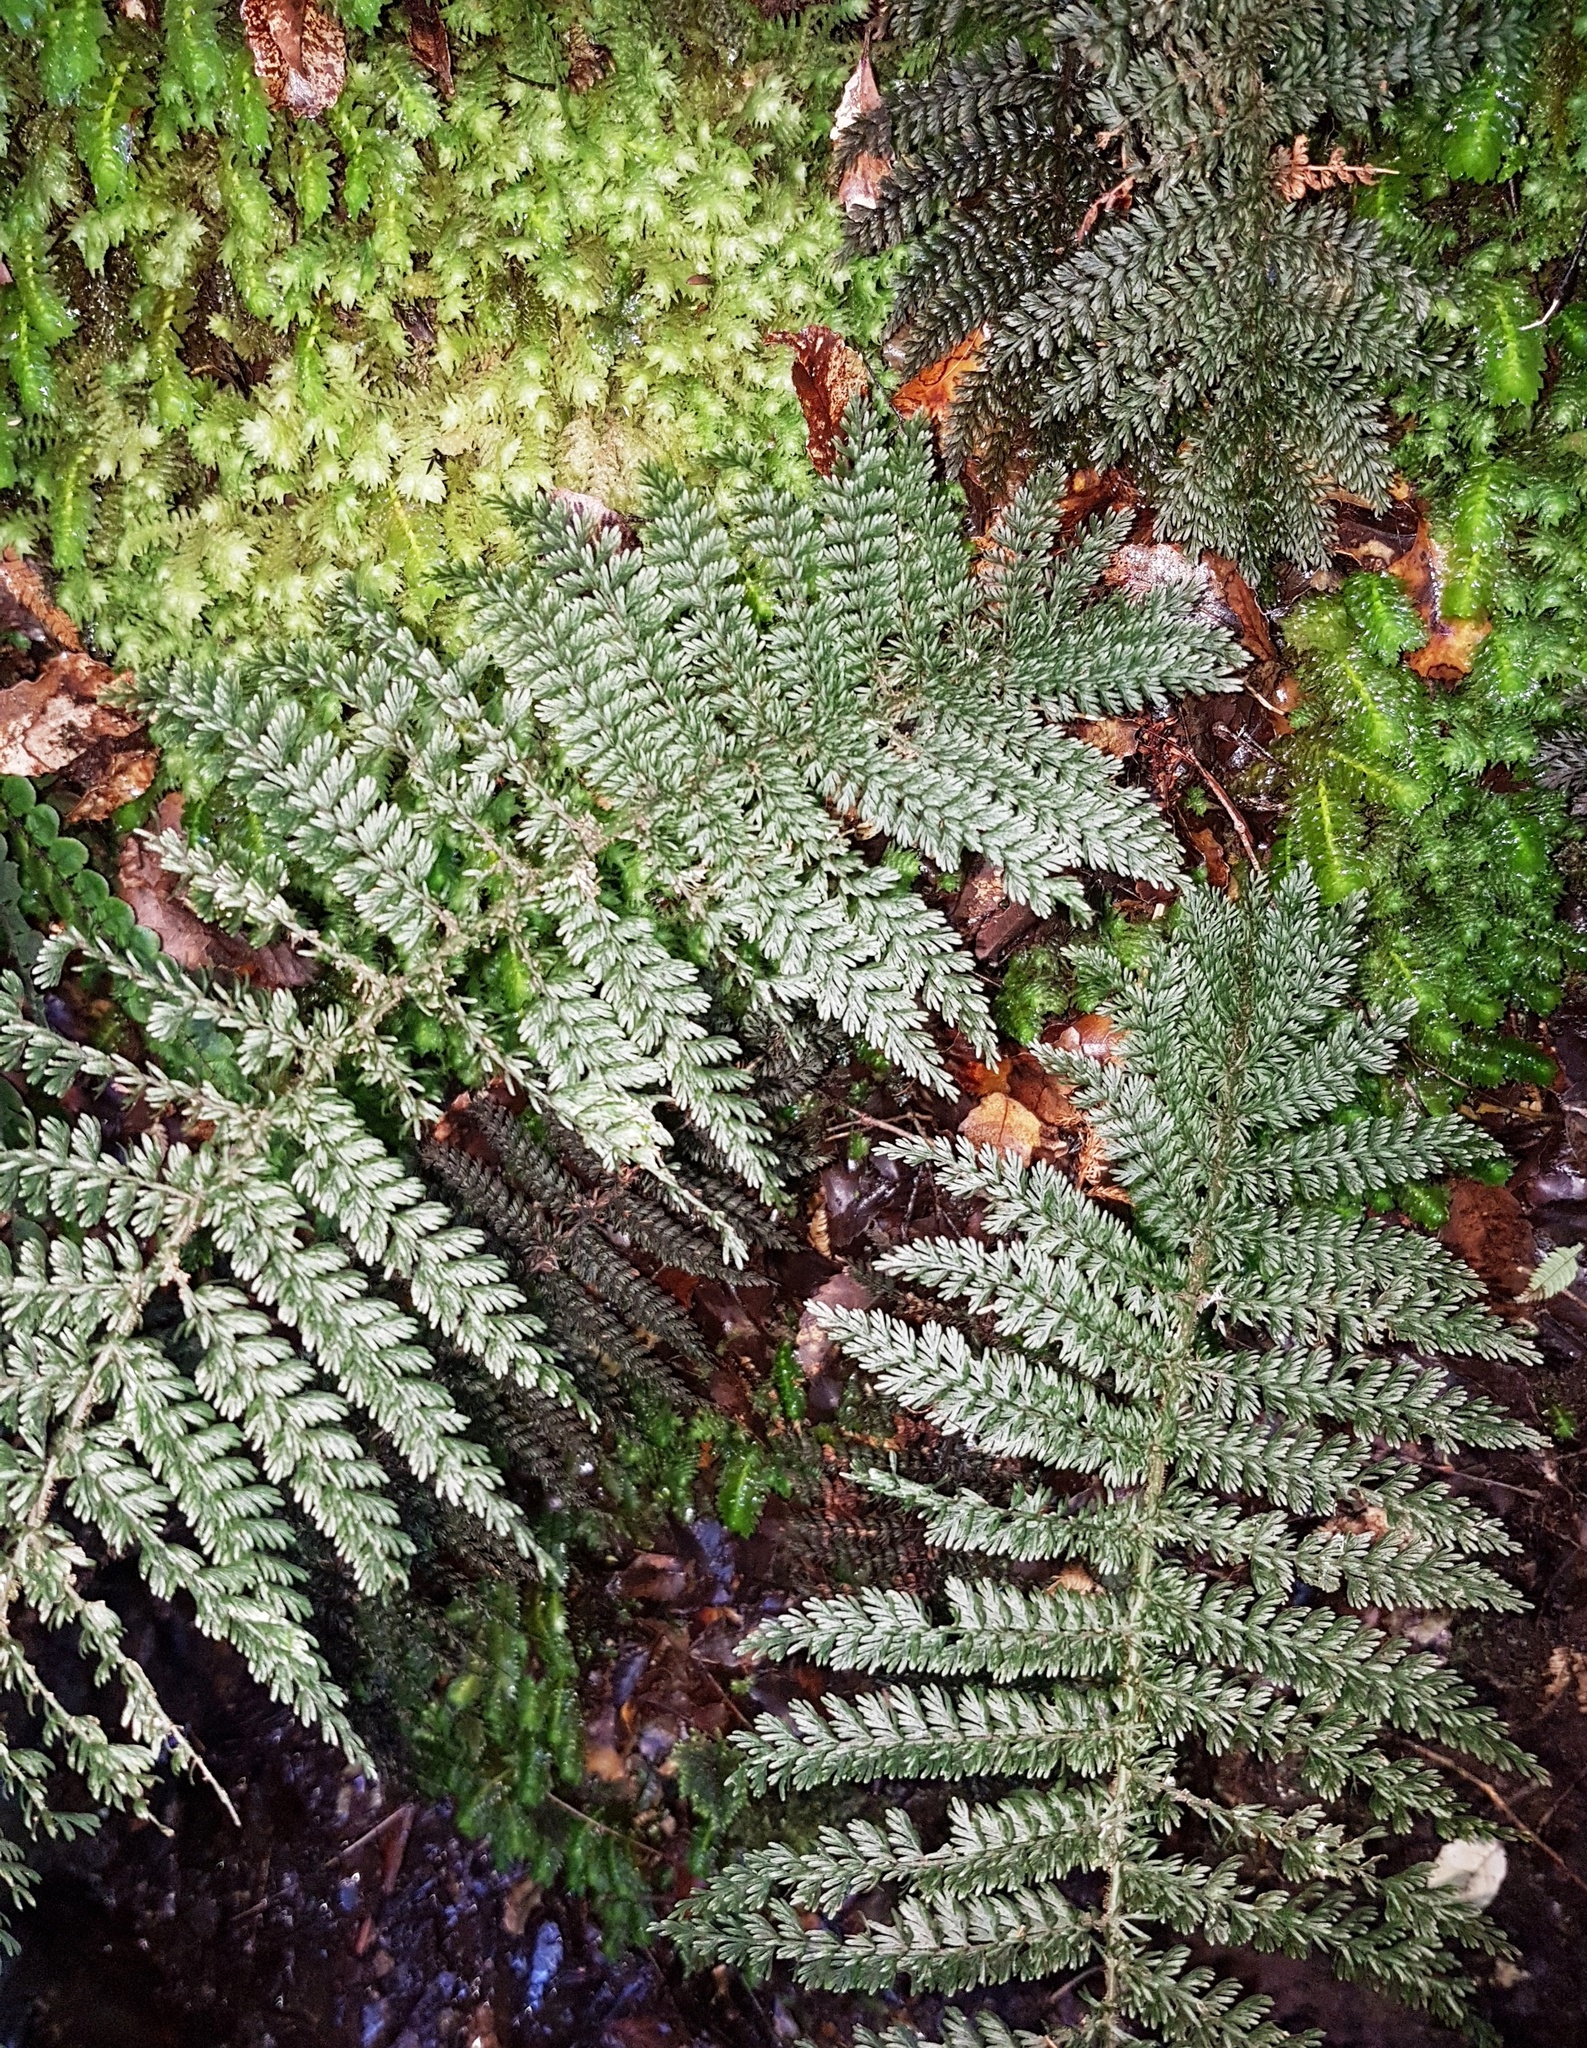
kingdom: Plantae
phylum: Tracheophyta
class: Polypodiopsida
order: Osmundales
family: Osmundaceae
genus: Leptopteris
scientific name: Leptopteris superba
